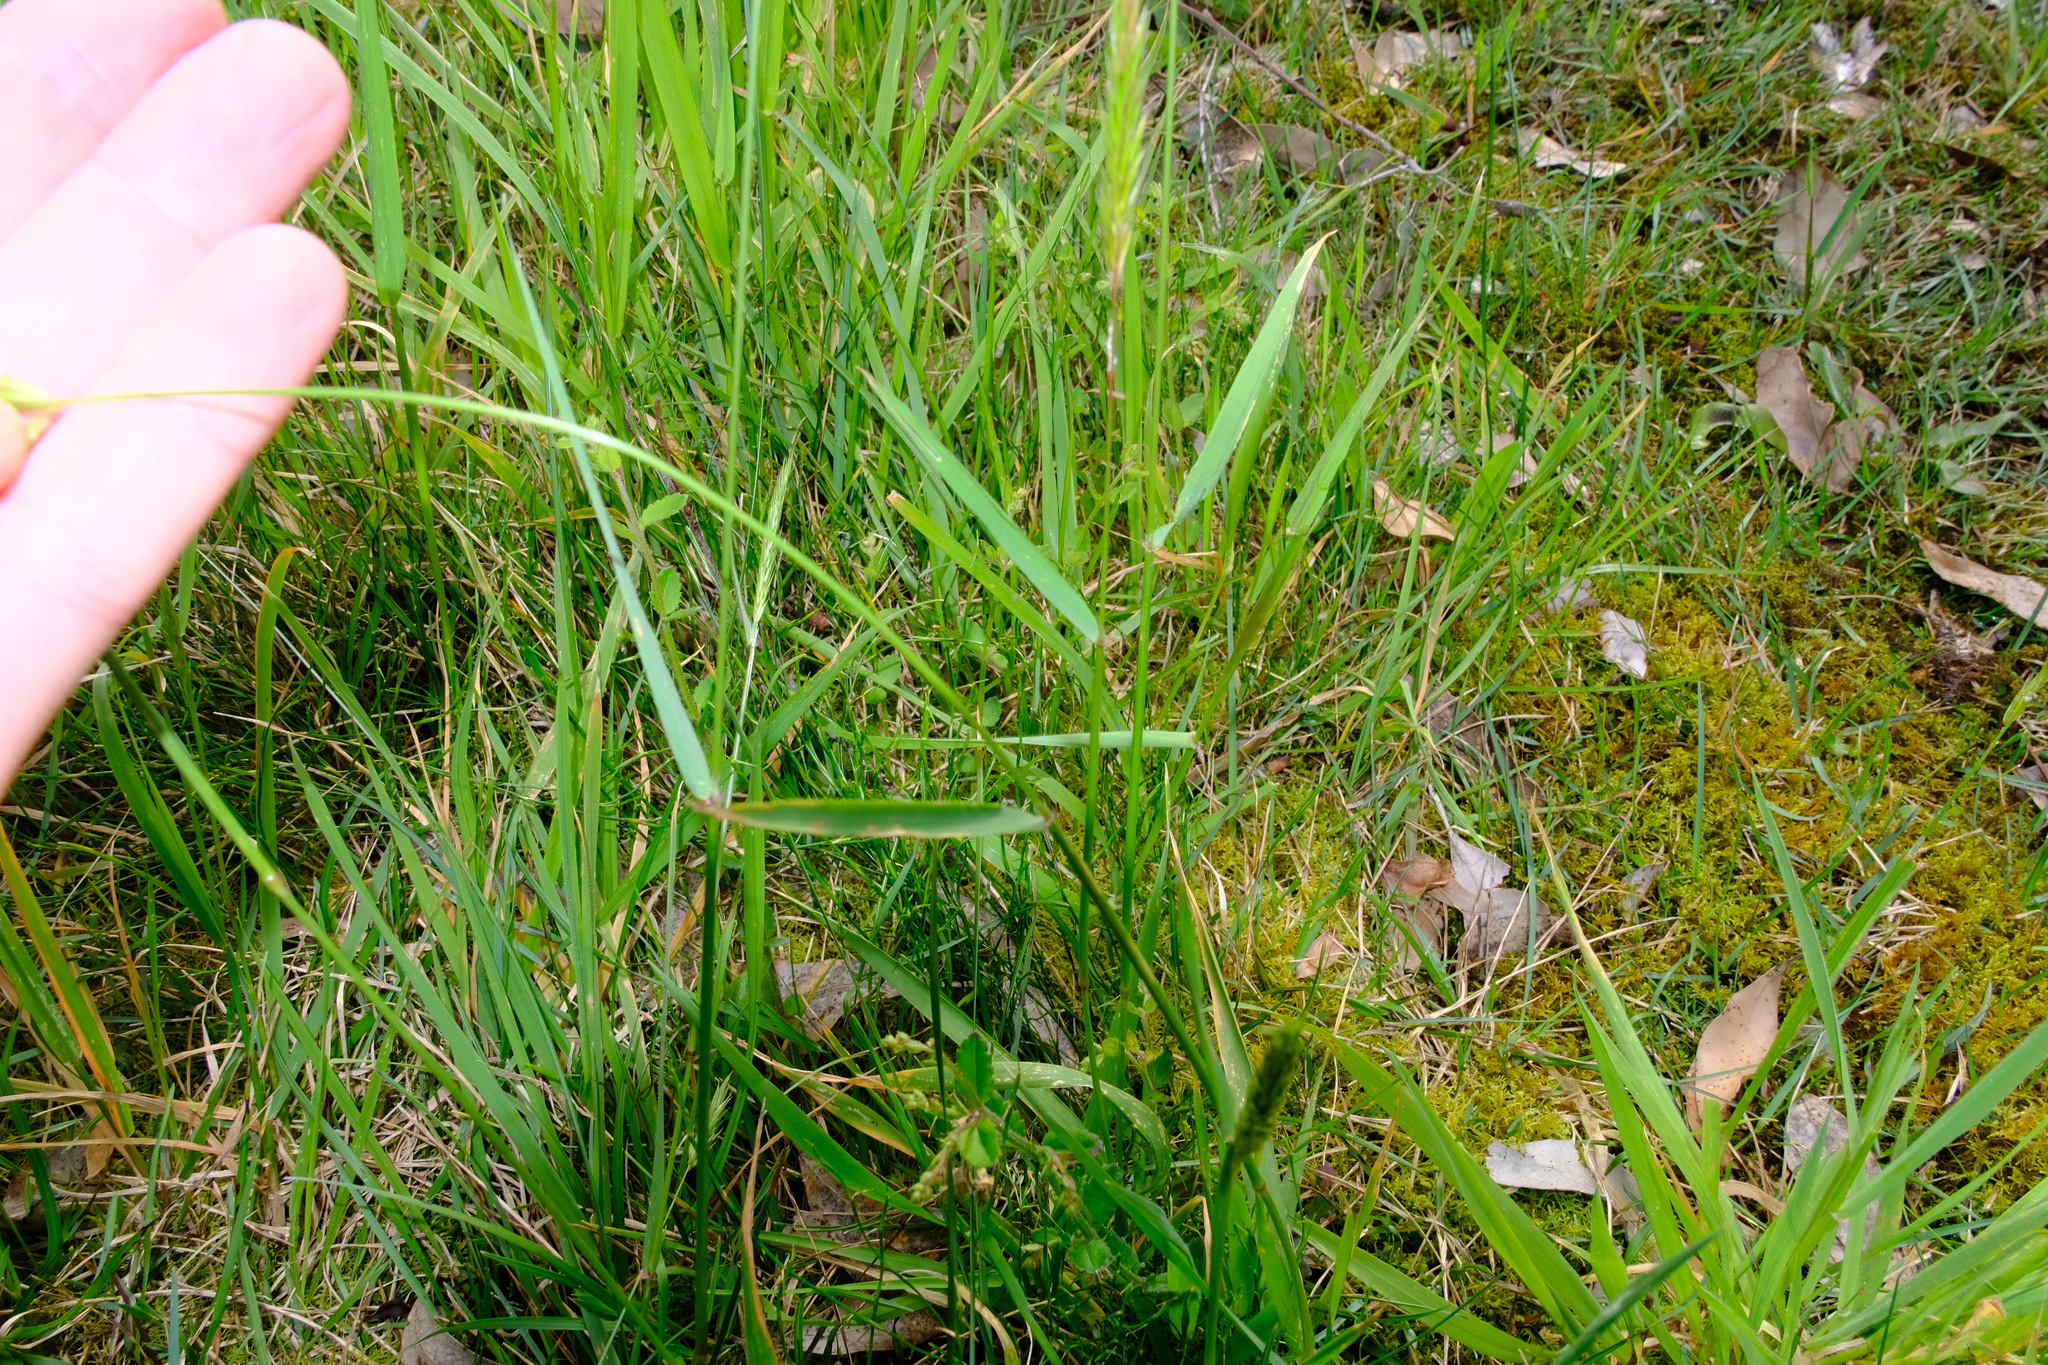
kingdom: Plantae
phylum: Tracheophyta
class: Liliopsida
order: Poales
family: Poaceae
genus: Anthoxanthum
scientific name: Anthoxanthum odoratum
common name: Sweet vernalgrass
